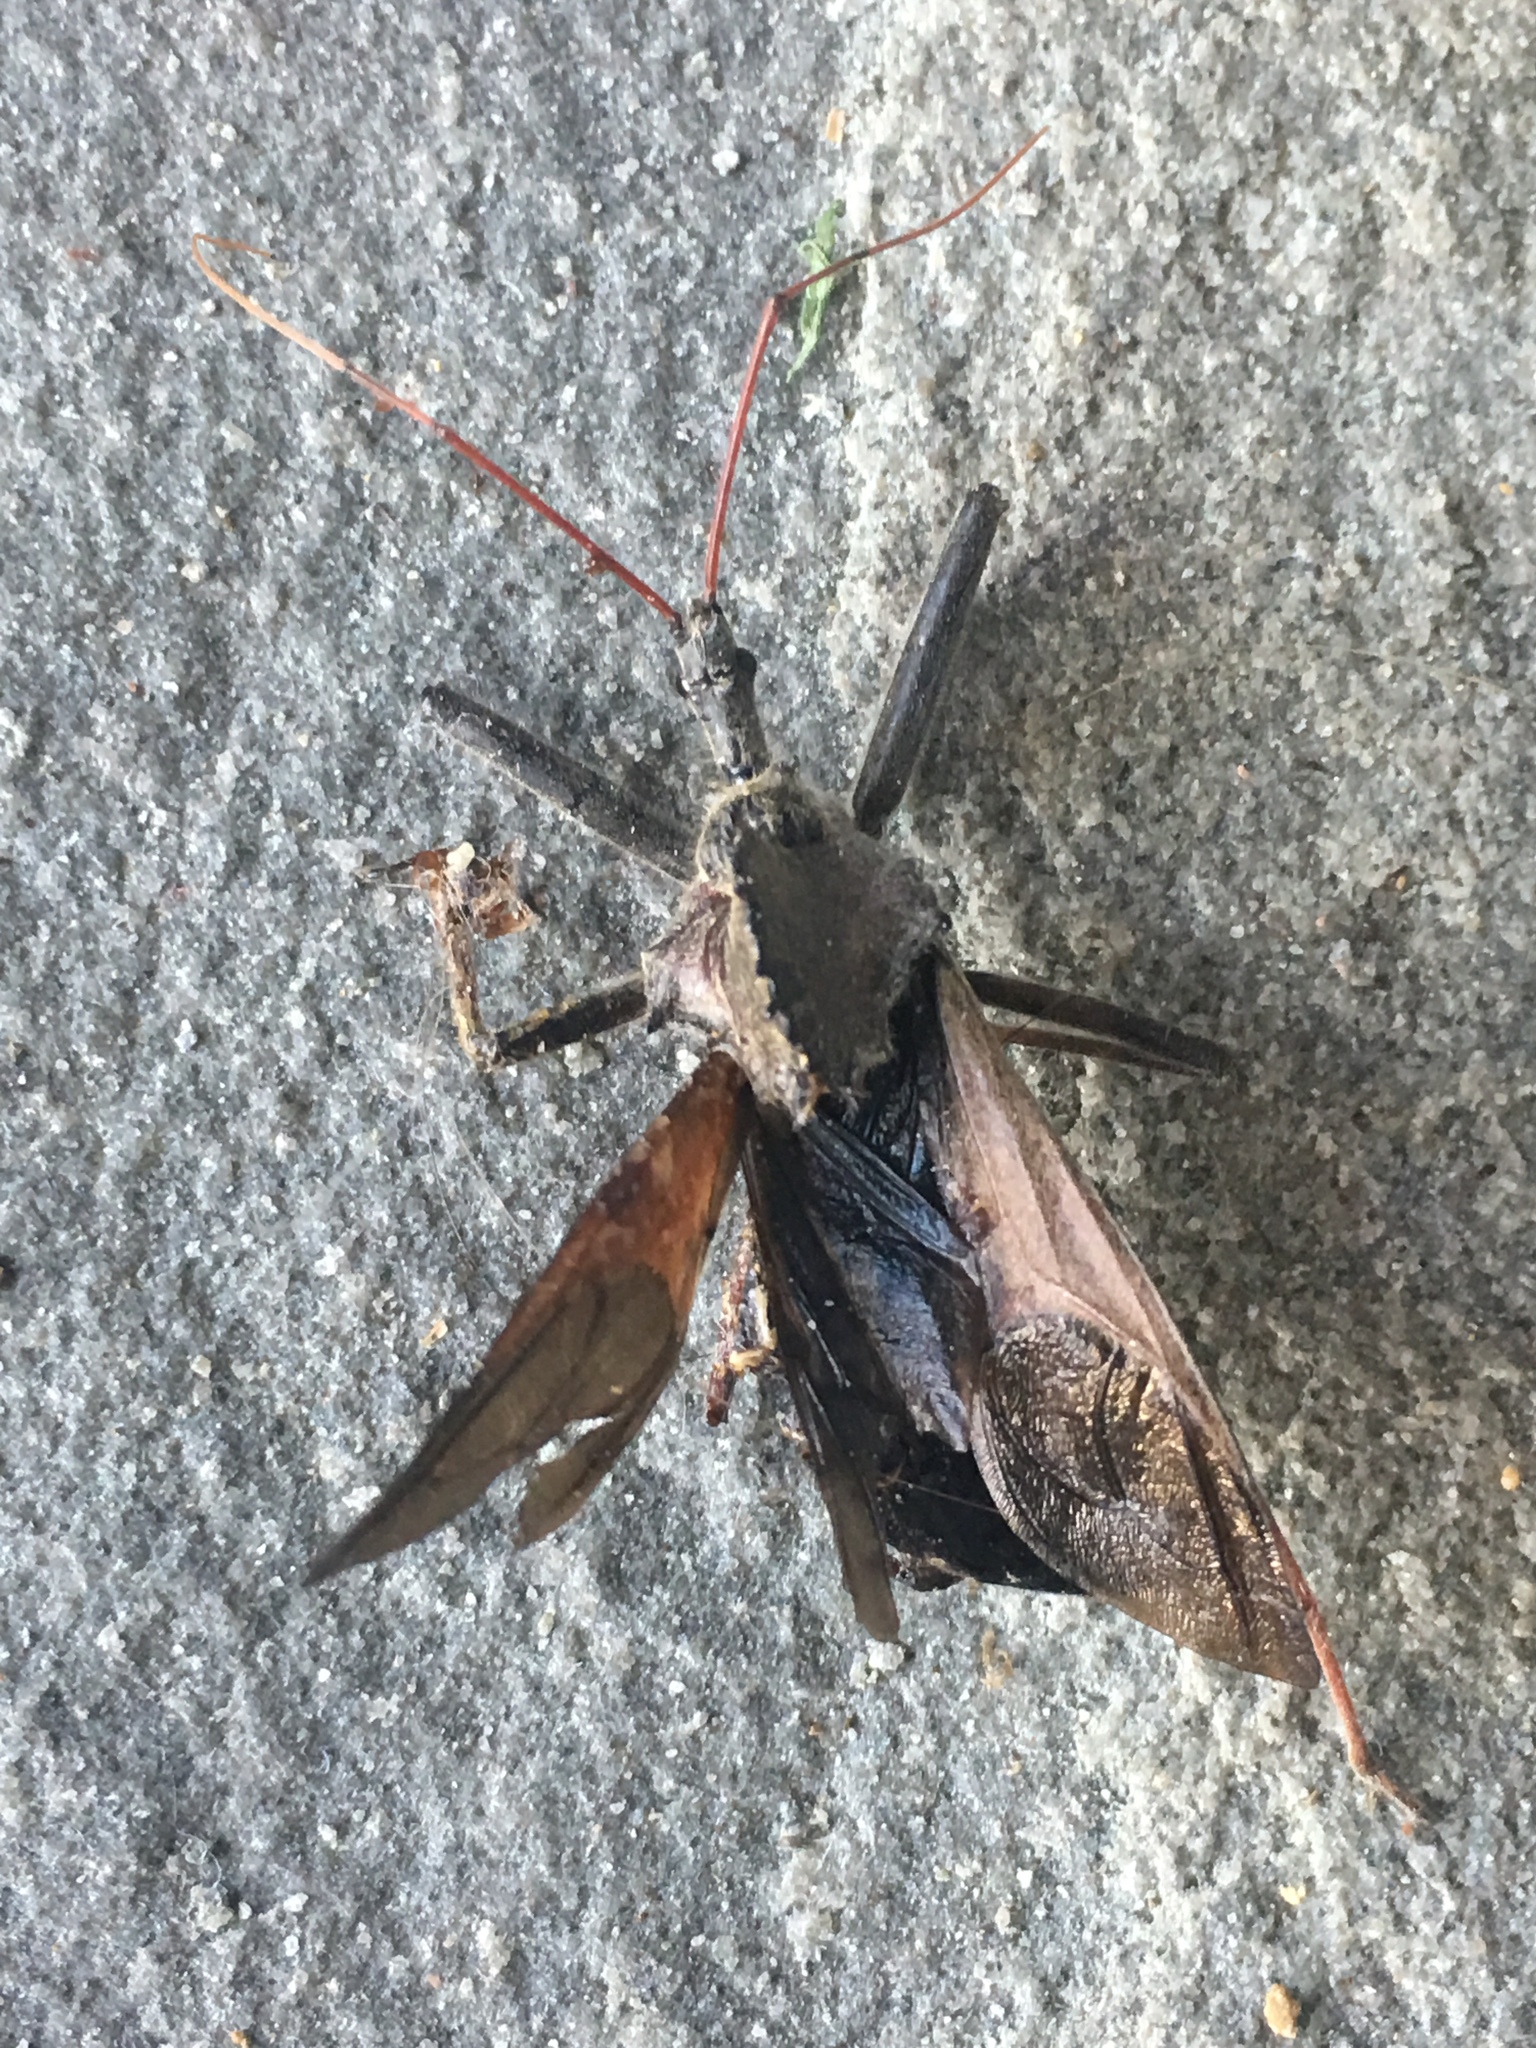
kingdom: Animalia
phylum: Arthropoda
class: Insecta
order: Hemiptera
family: Reduviidae
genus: Arilus
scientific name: Arilus cristatus
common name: North american wheel bug
